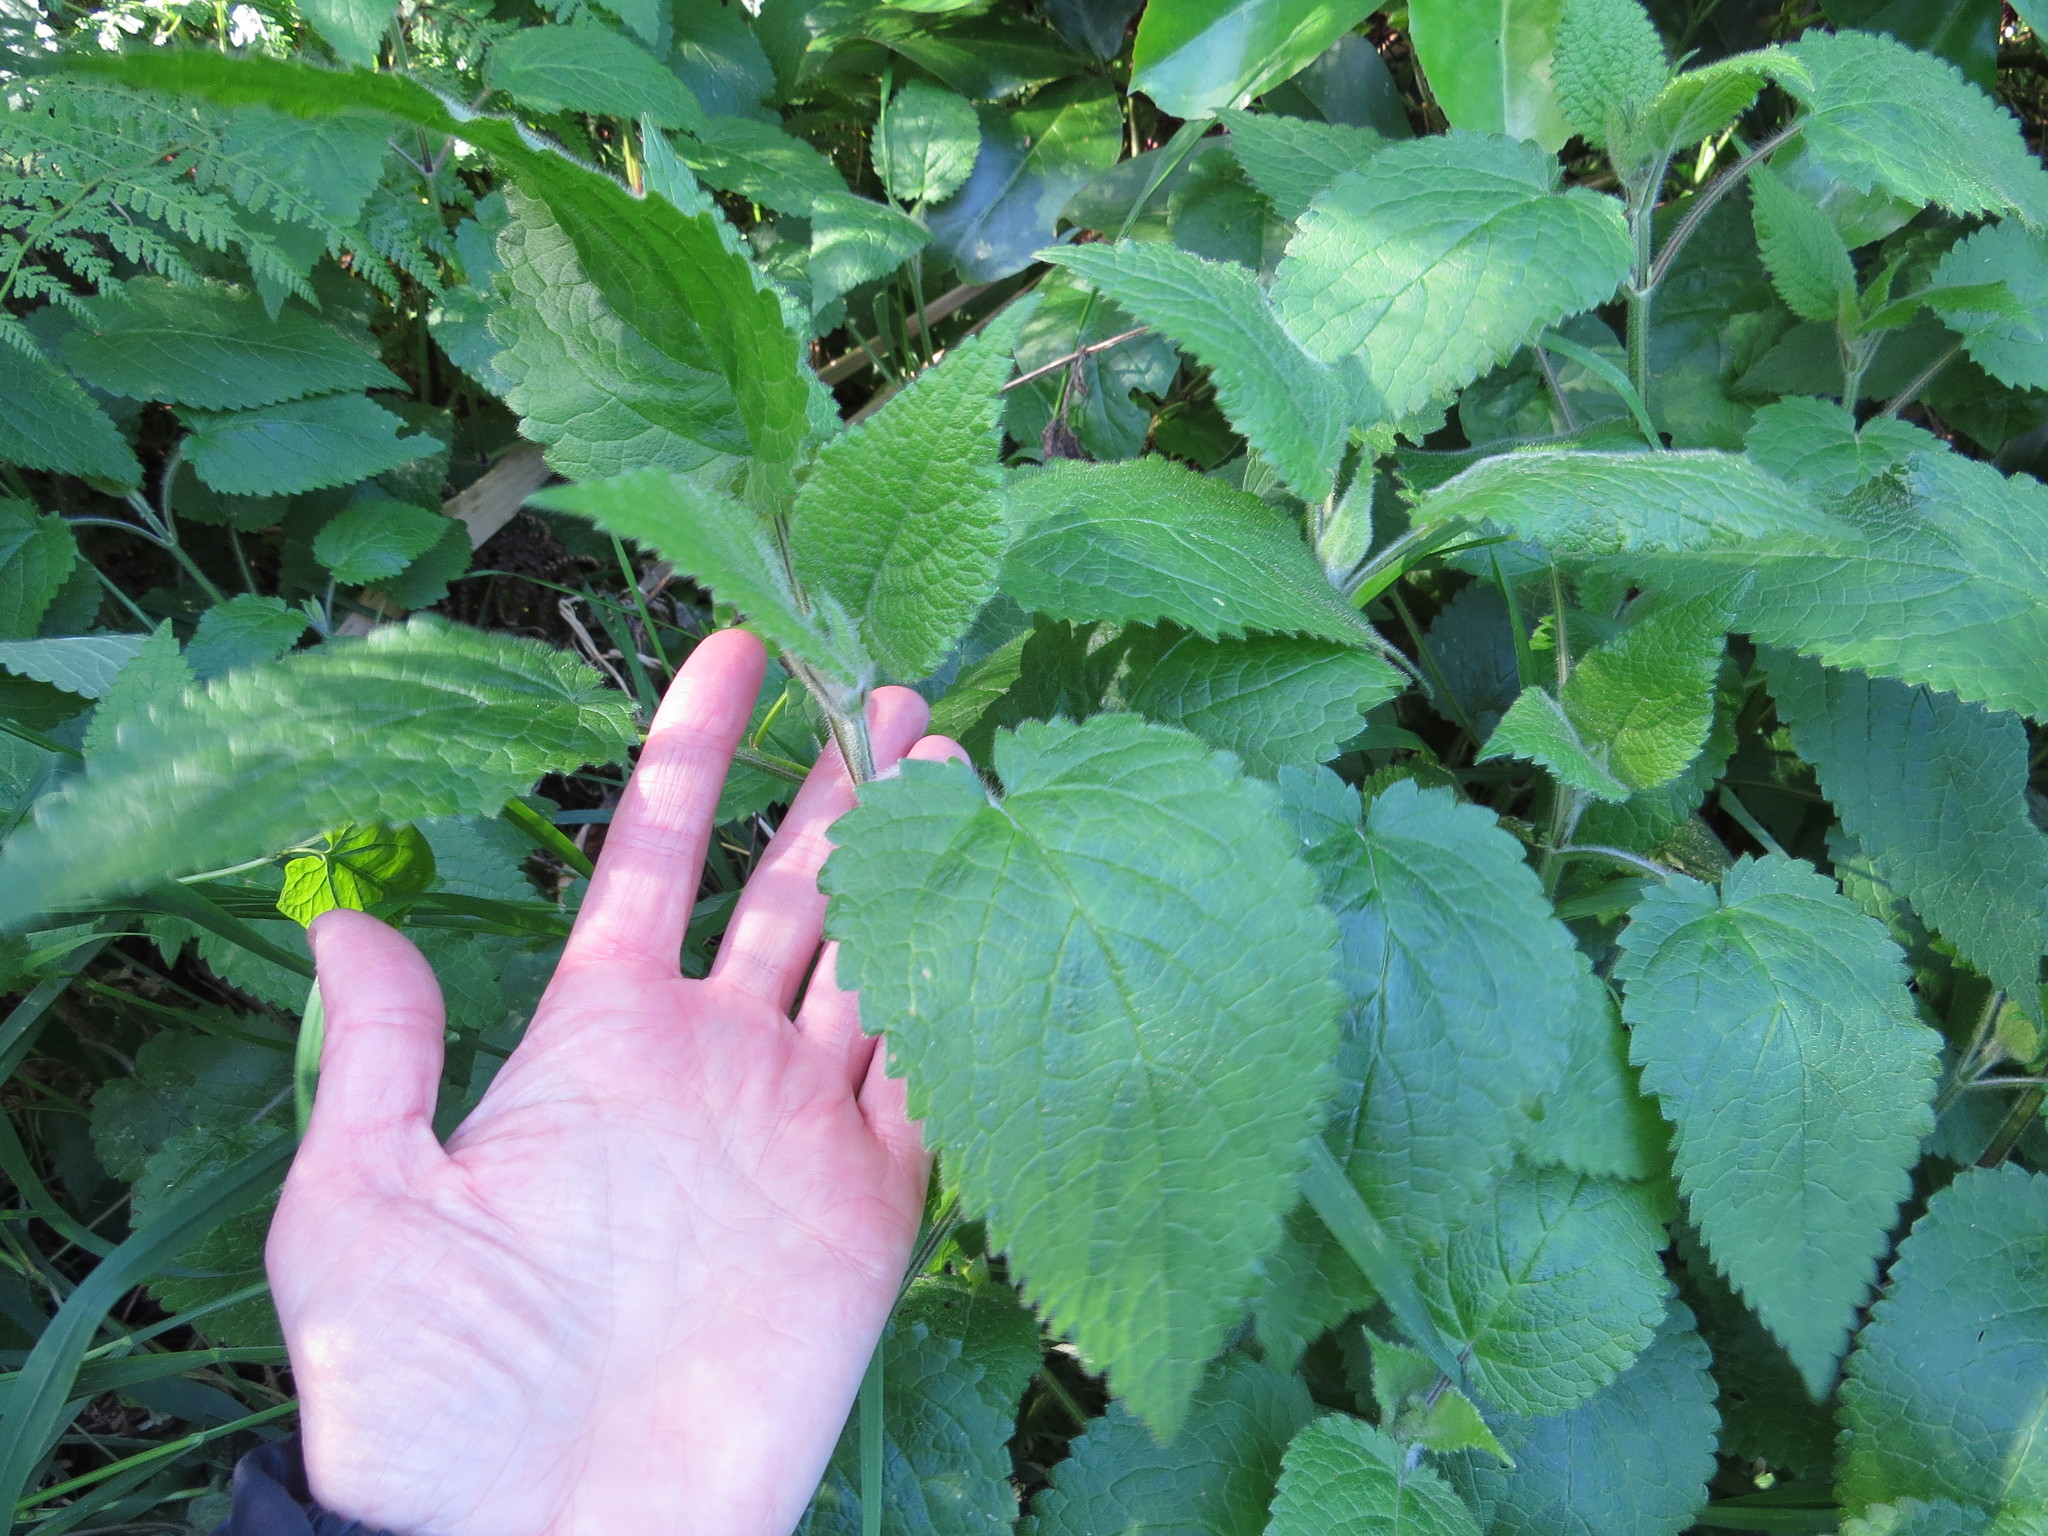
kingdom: Plantae
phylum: Tracheophyta
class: Magnoliopsida
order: Lamiales
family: Lamiaceae
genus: Stachys
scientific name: Stachys sylvatica
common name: Hedge woundwort
